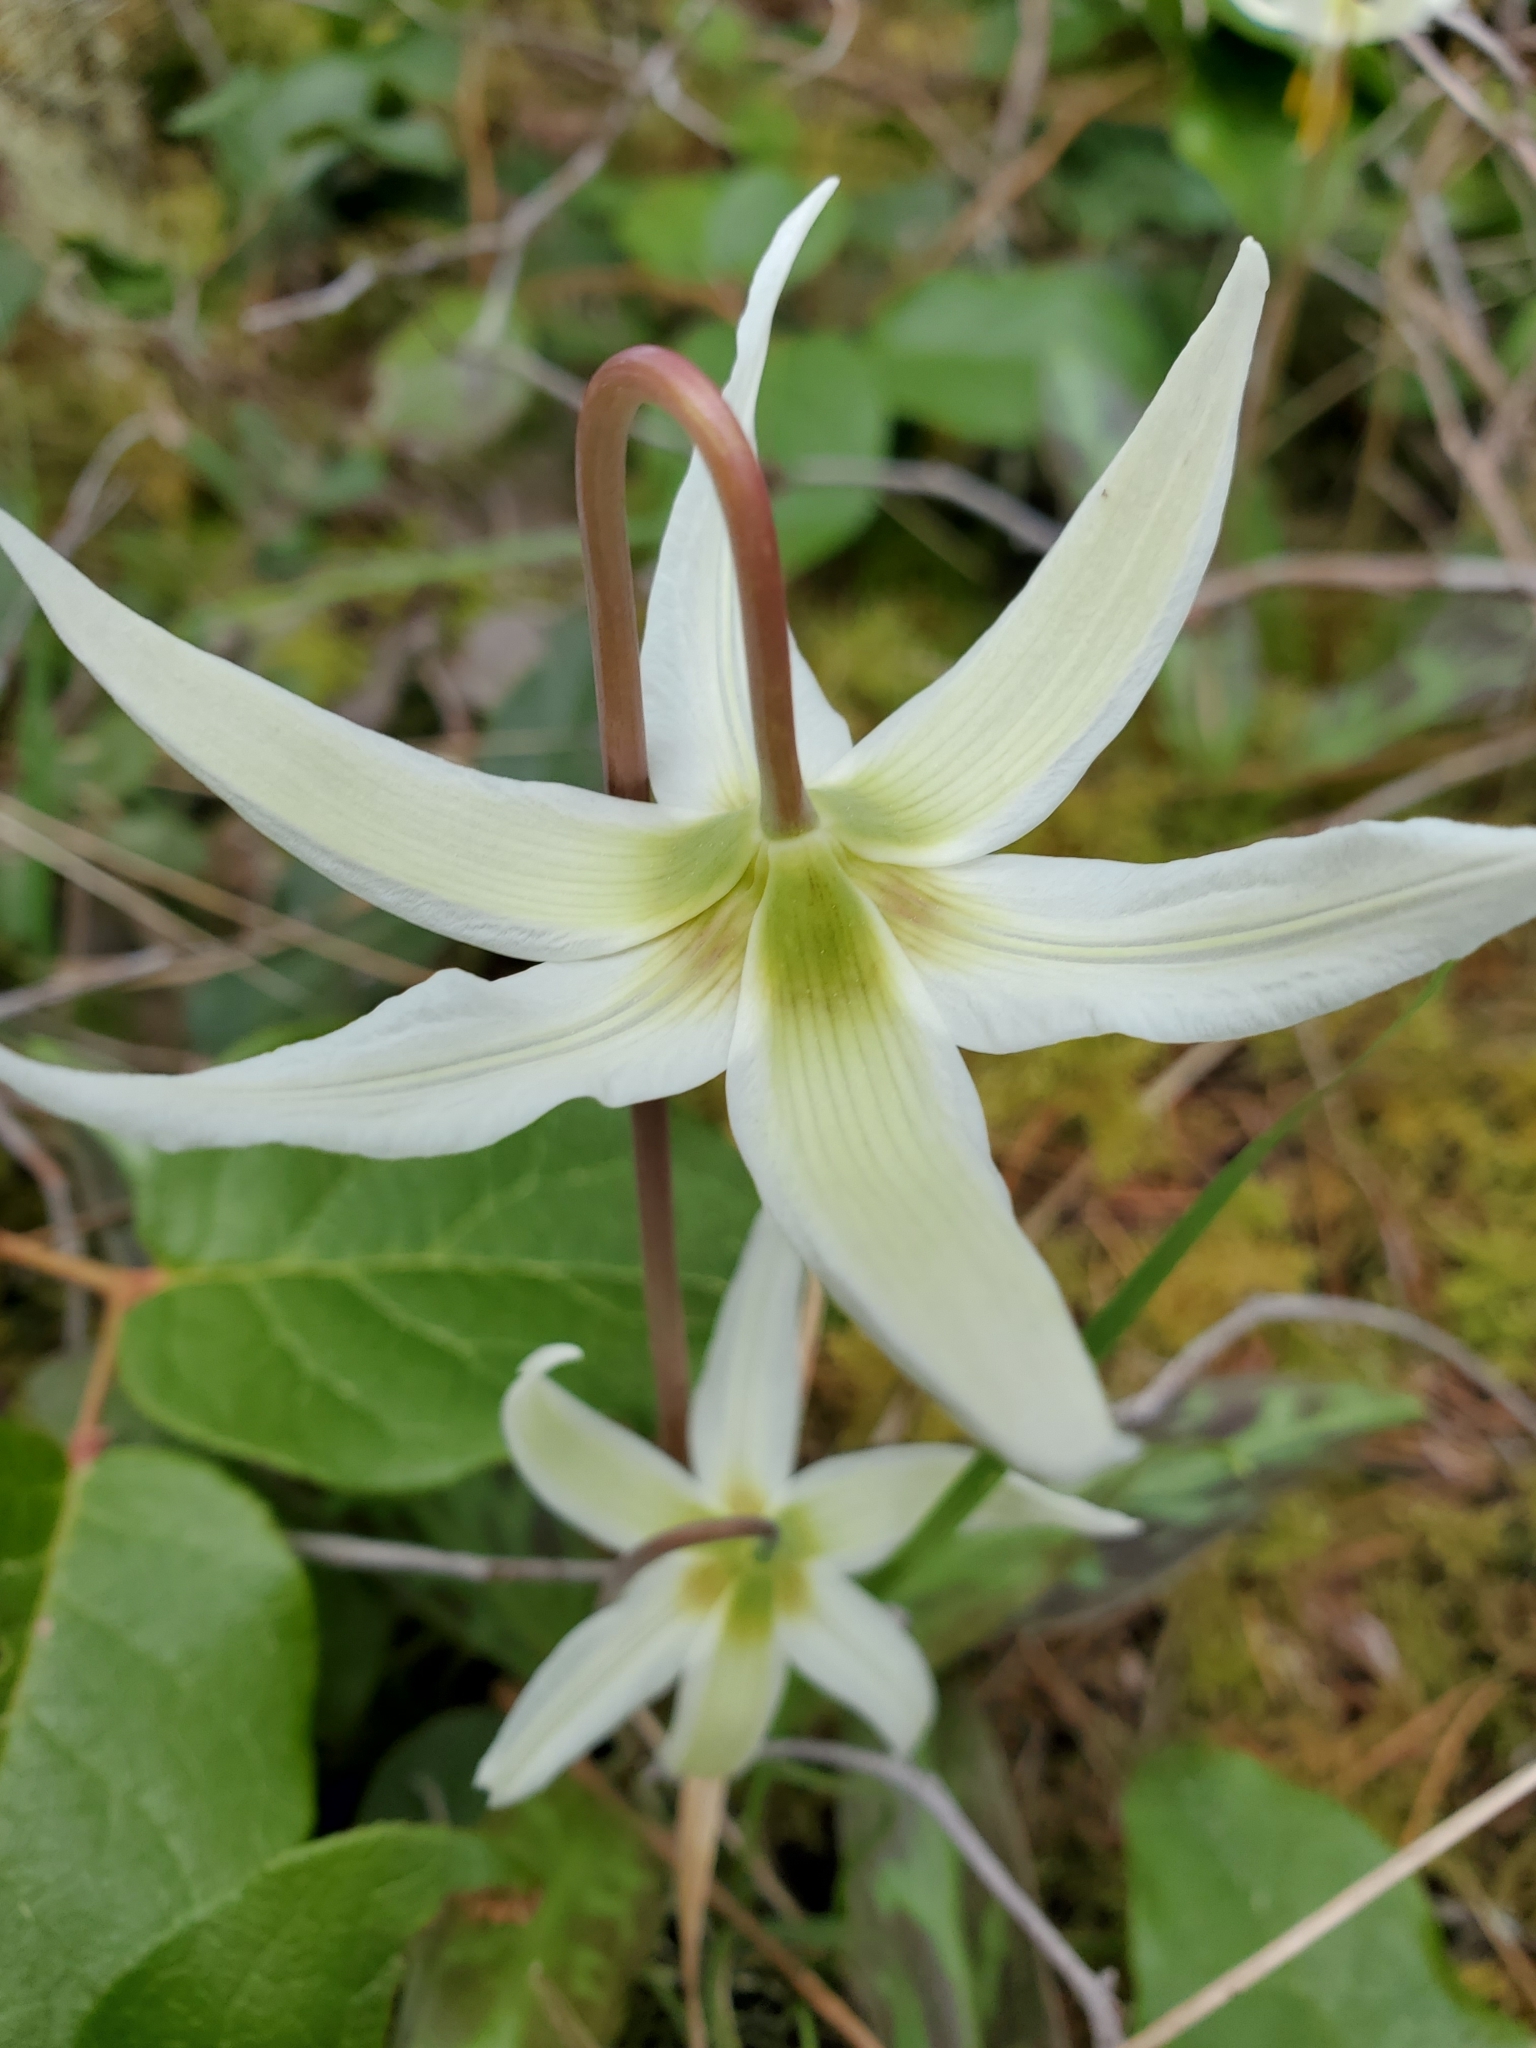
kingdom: Plantae
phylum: Tracheophyta
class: Liliopsida
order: Liliales
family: Liliaceae
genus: Erythronium
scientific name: Erythronium oregonum
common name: Giant adder's-tongue
